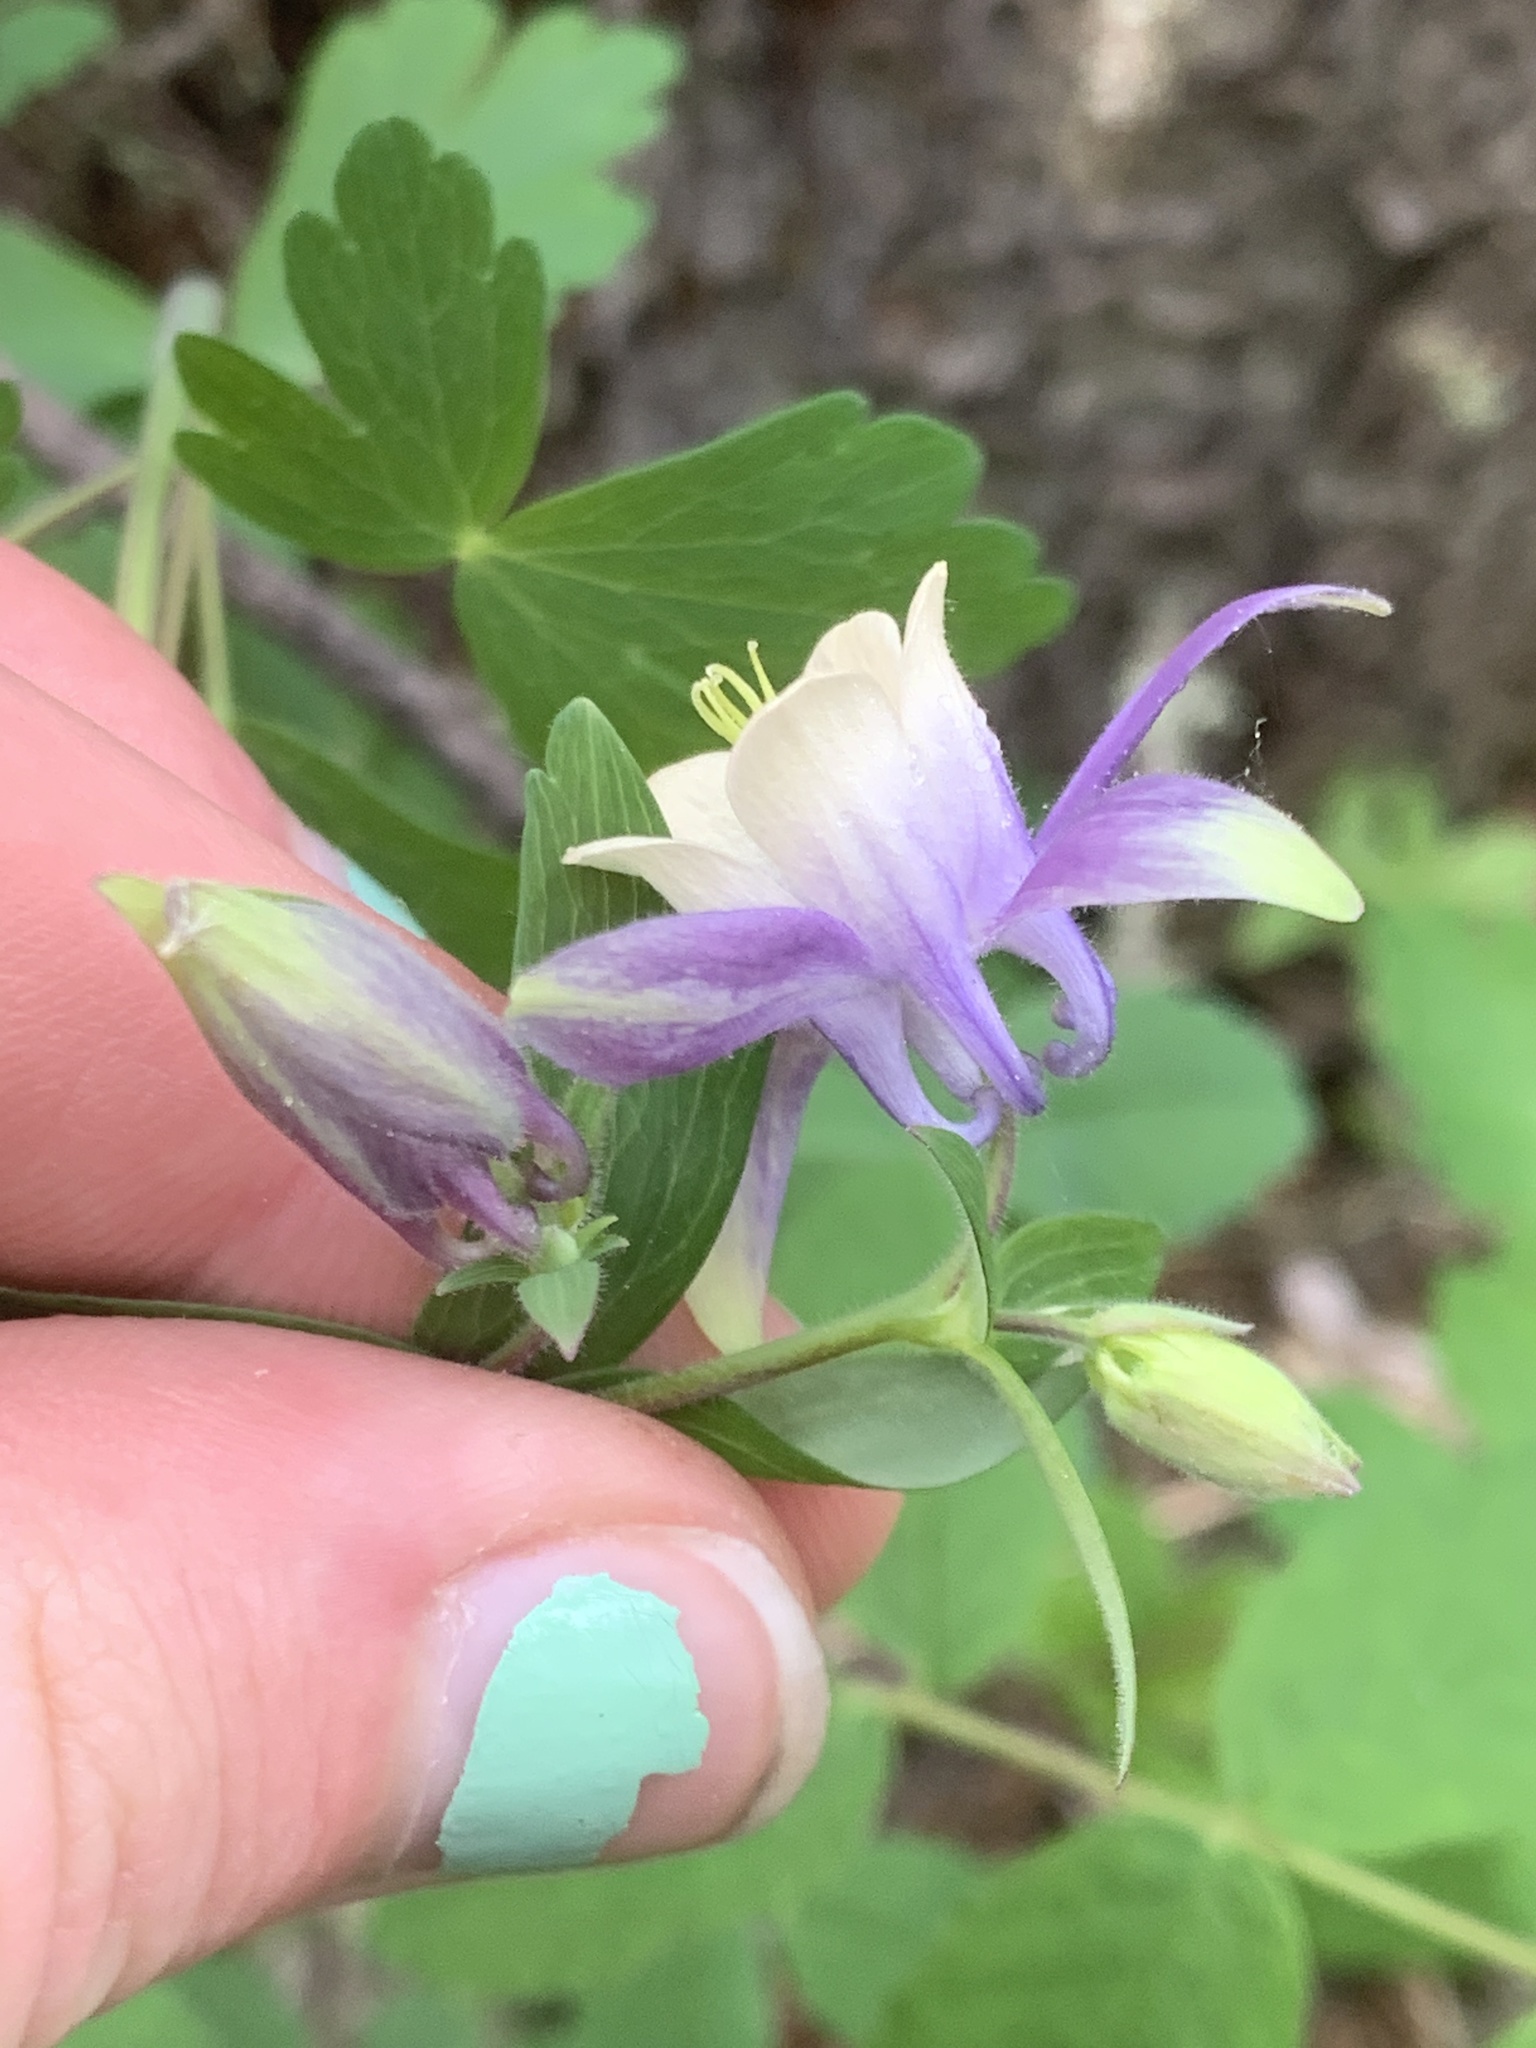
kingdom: Plantae
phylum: Tracheophyta
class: Magnoliopsida
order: Ranunculales
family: Ranunculaceae
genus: Aquilegia
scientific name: Aquilegia brevistyla
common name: Yukon columbine
